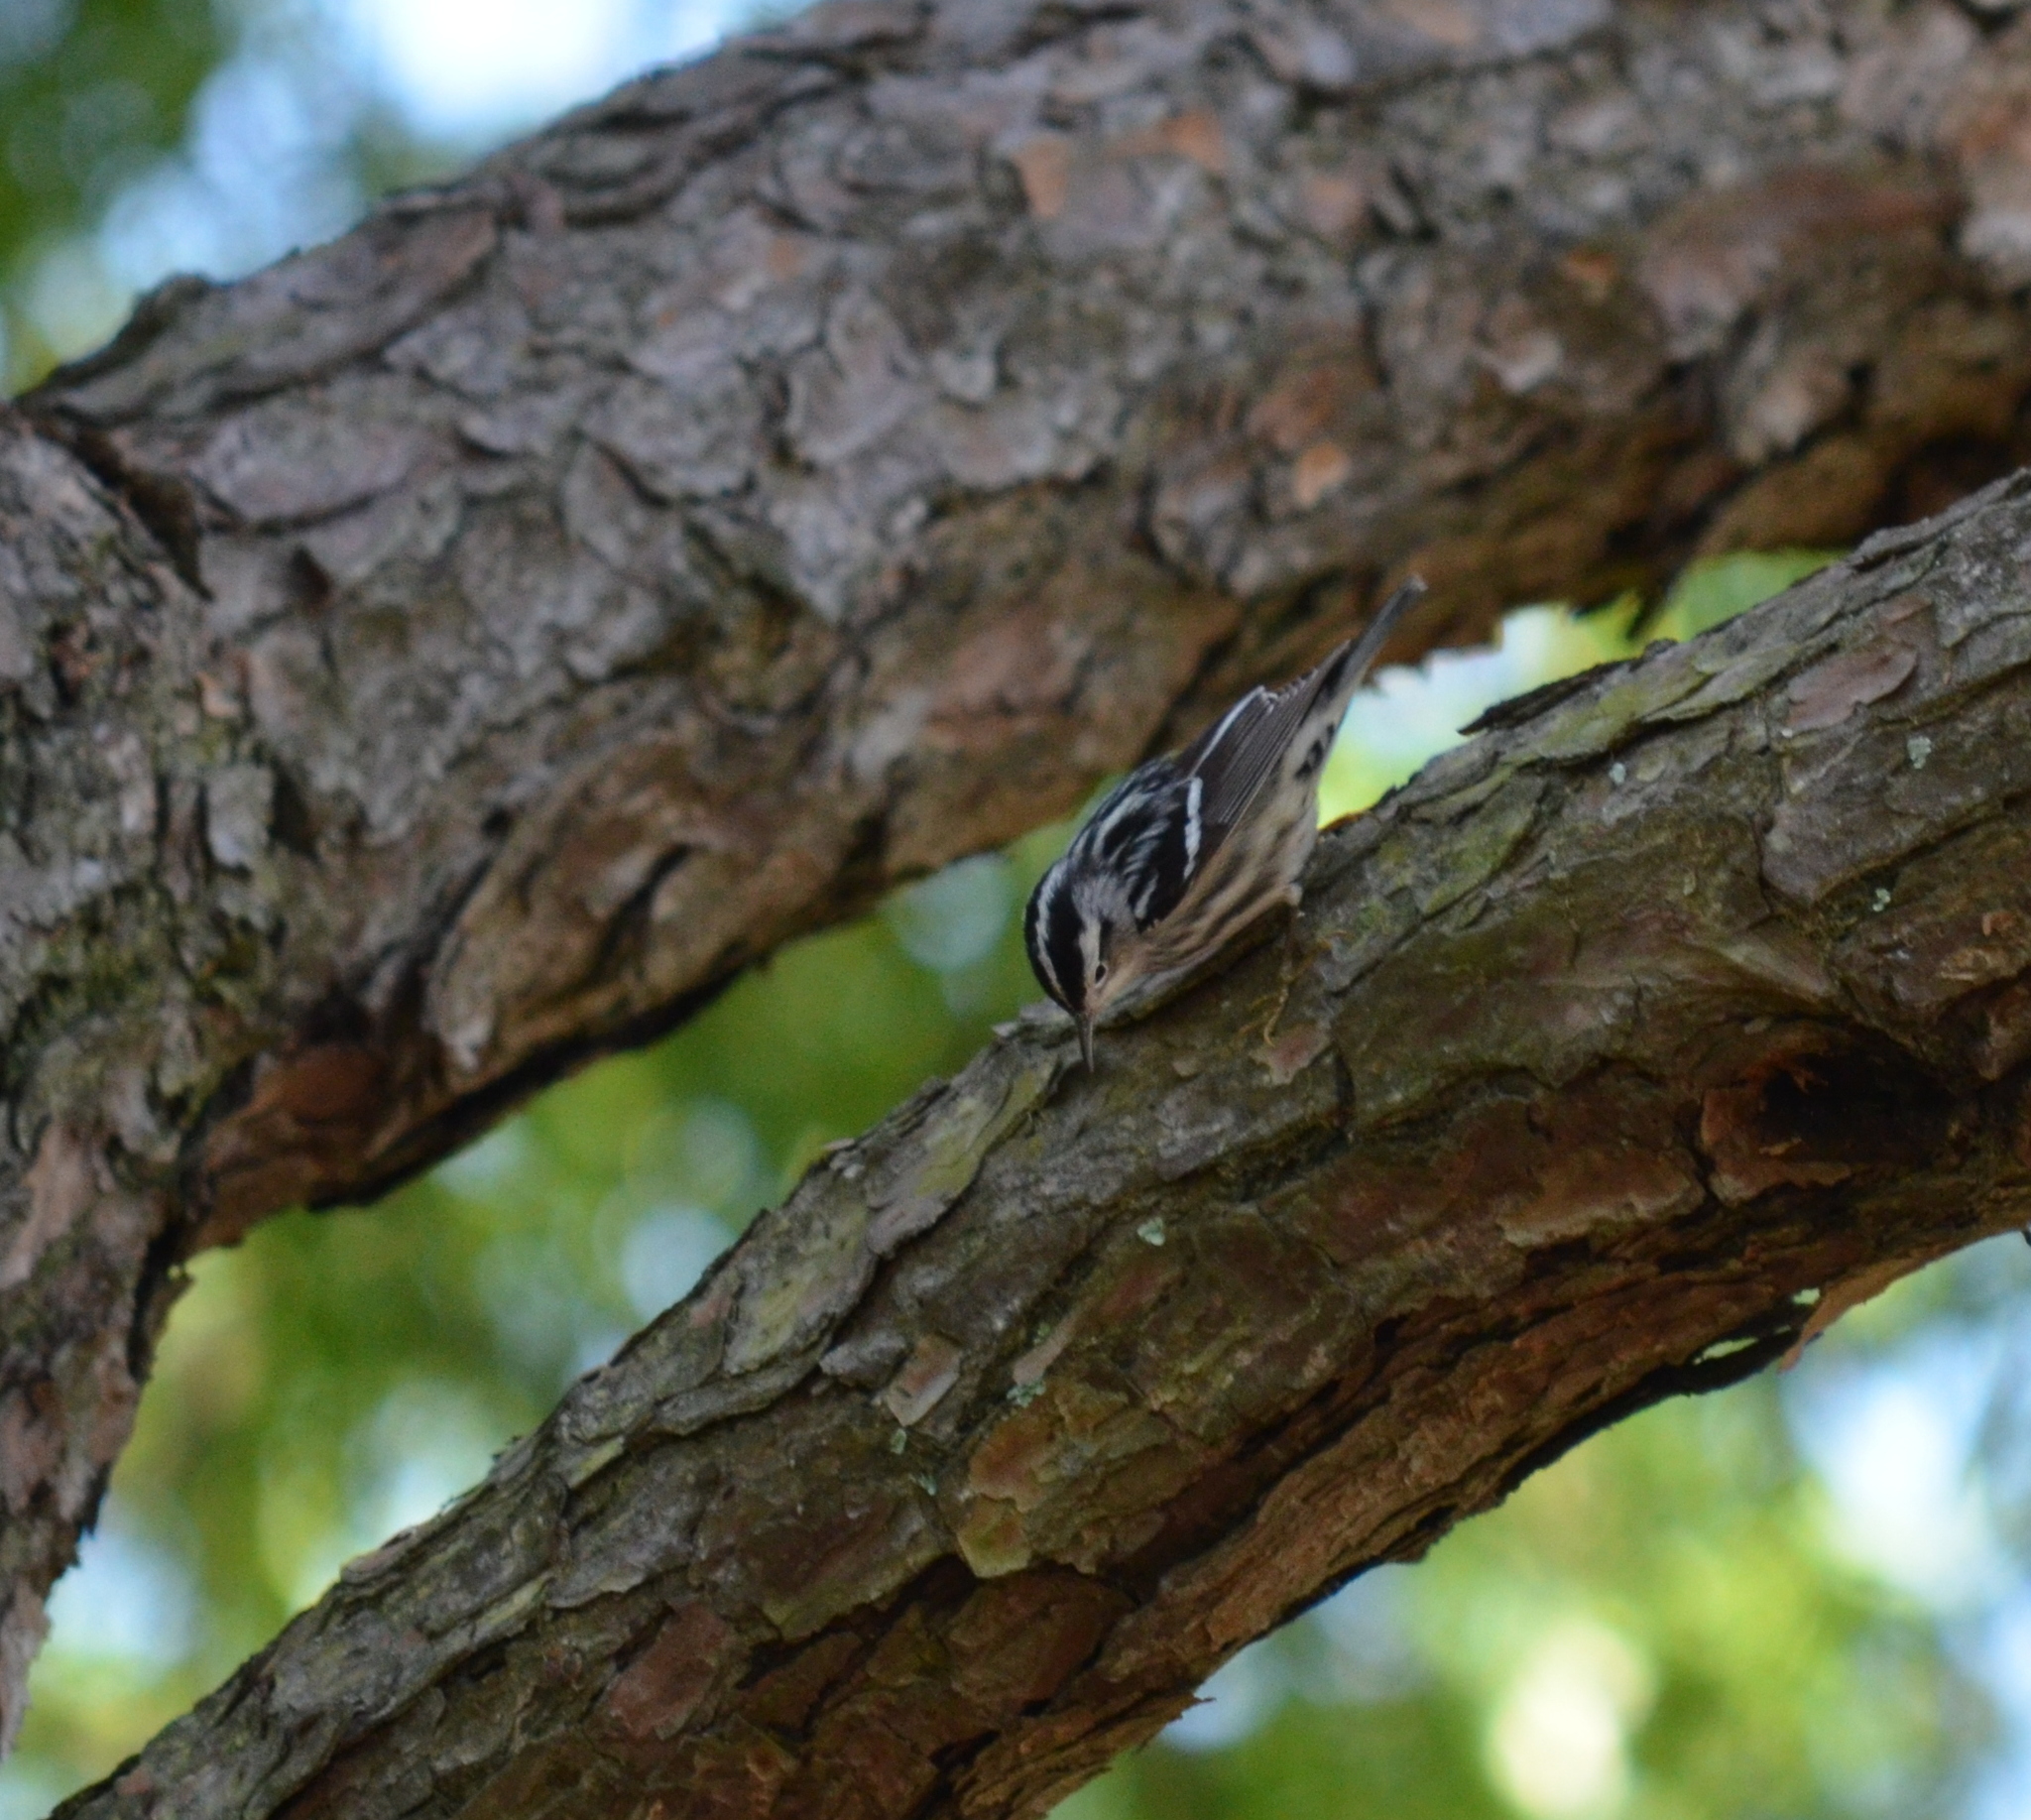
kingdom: Animalia
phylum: Chordata
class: Aves
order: Passeriformes
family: Parulidae
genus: Mniotilta
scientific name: Mniotilta varia
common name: Black-and-white warbler
